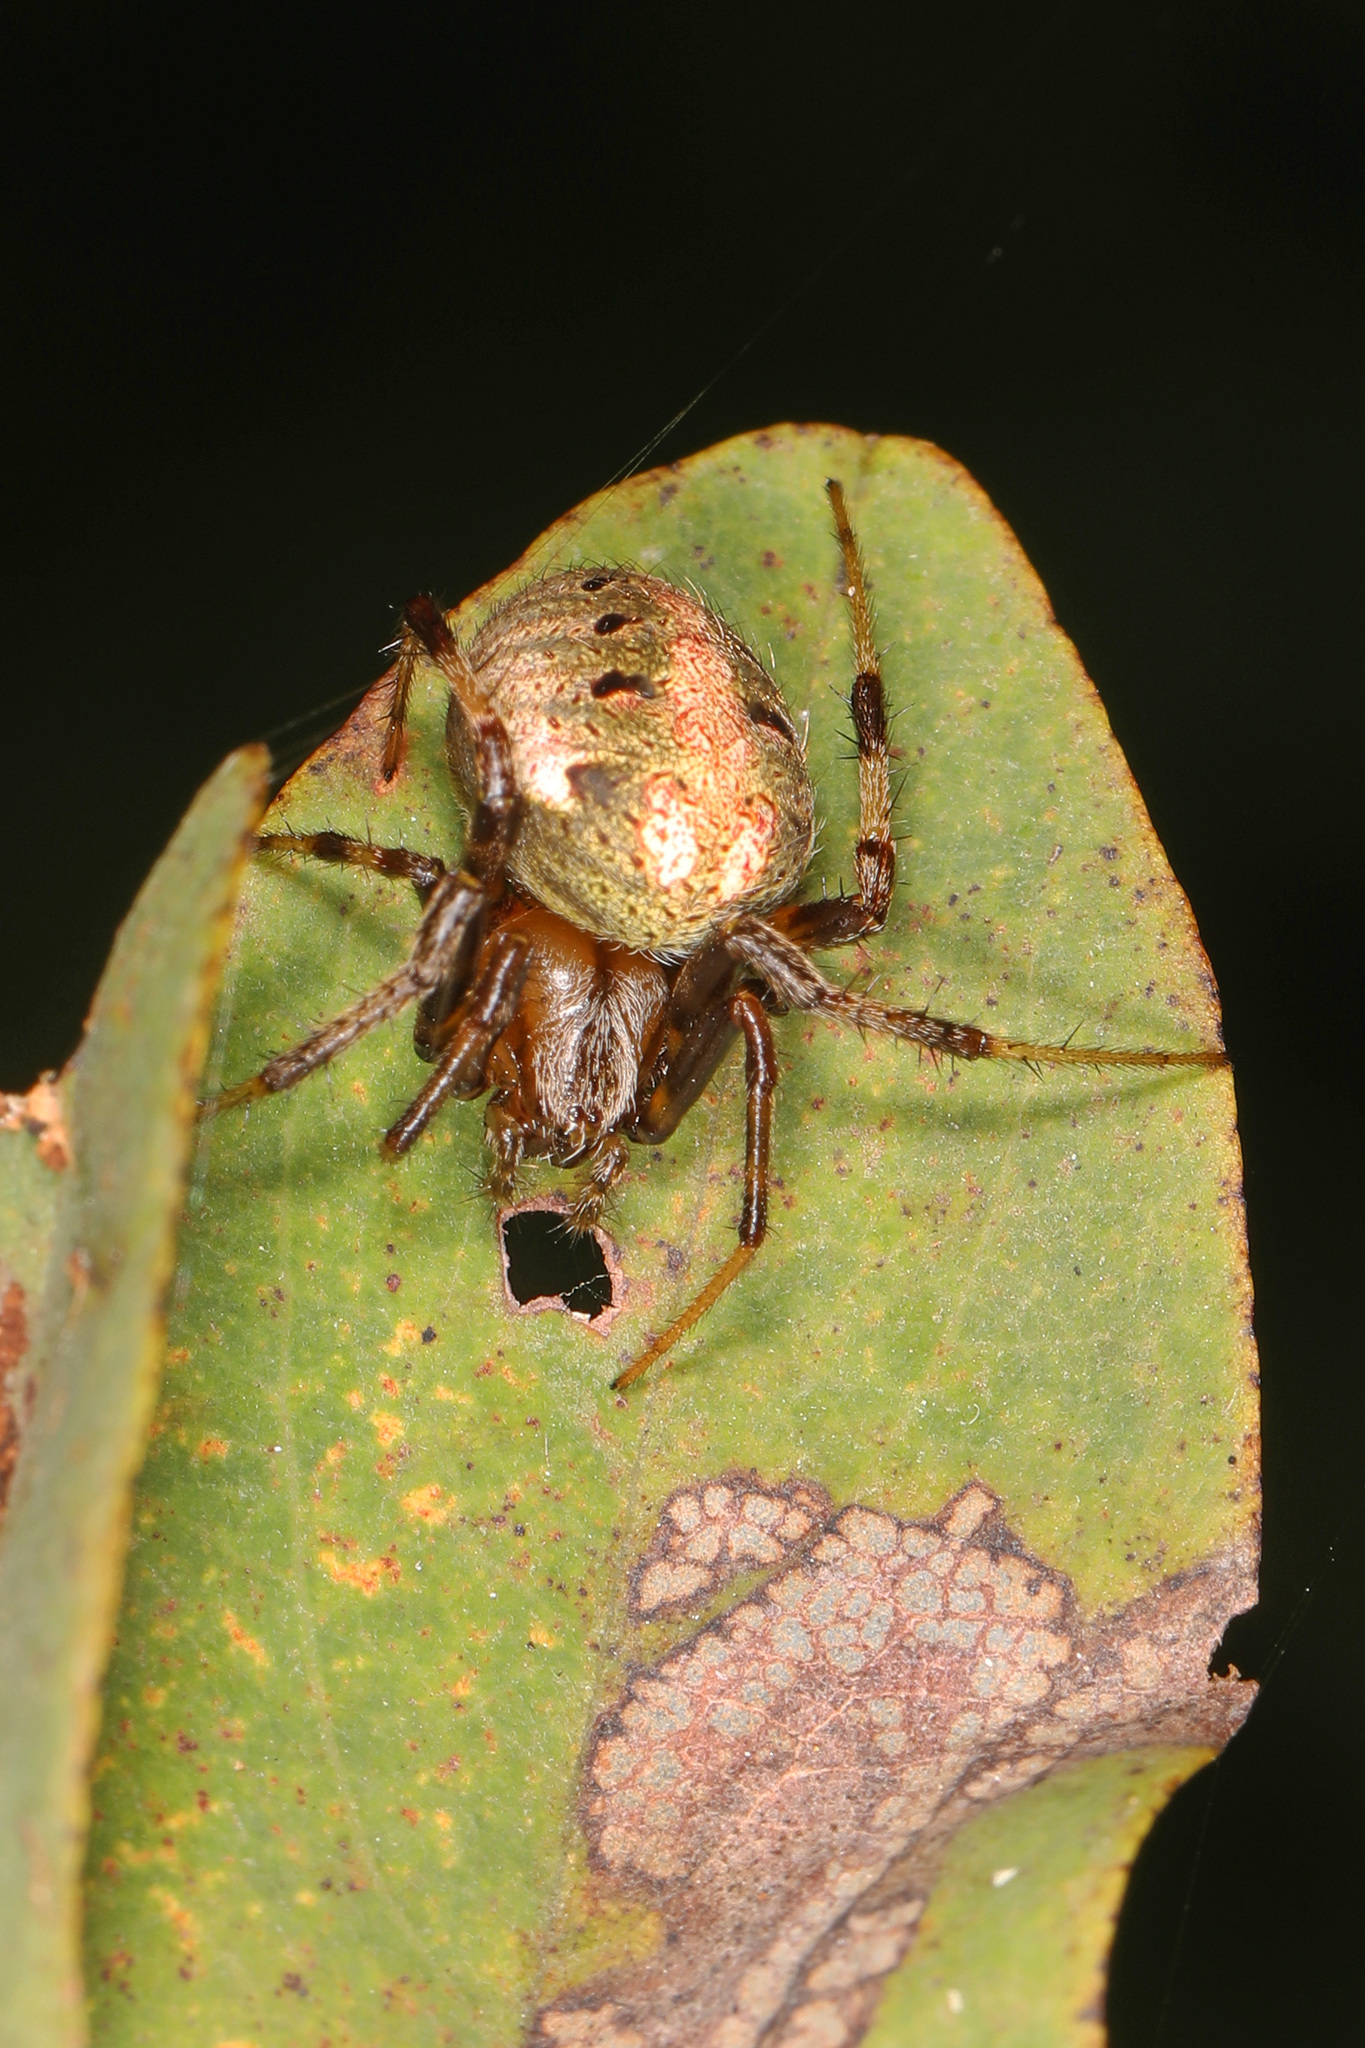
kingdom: Animalia
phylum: Arthropoda
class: Arachnida
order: Araneae
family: Araneidae
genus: Neoscona
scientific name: Neoscona arabesca
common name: Orb weavers
